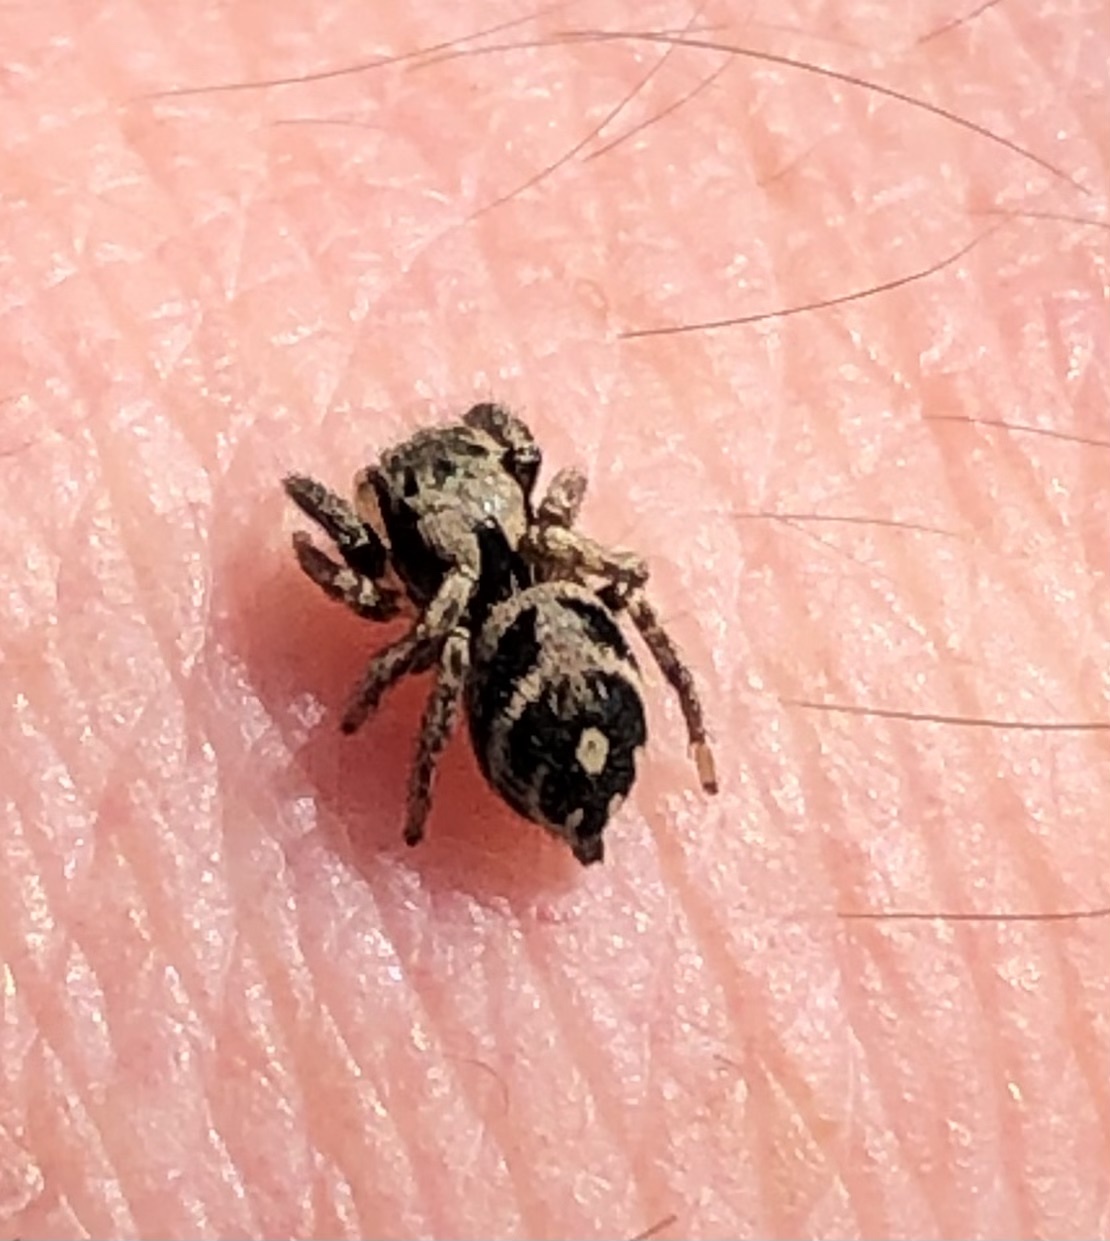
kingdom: Animalia
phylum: Arthropoda
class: Arachnida
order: Araneae
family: Salticidae
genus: Habronattus
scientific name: Habronattus coecatus
